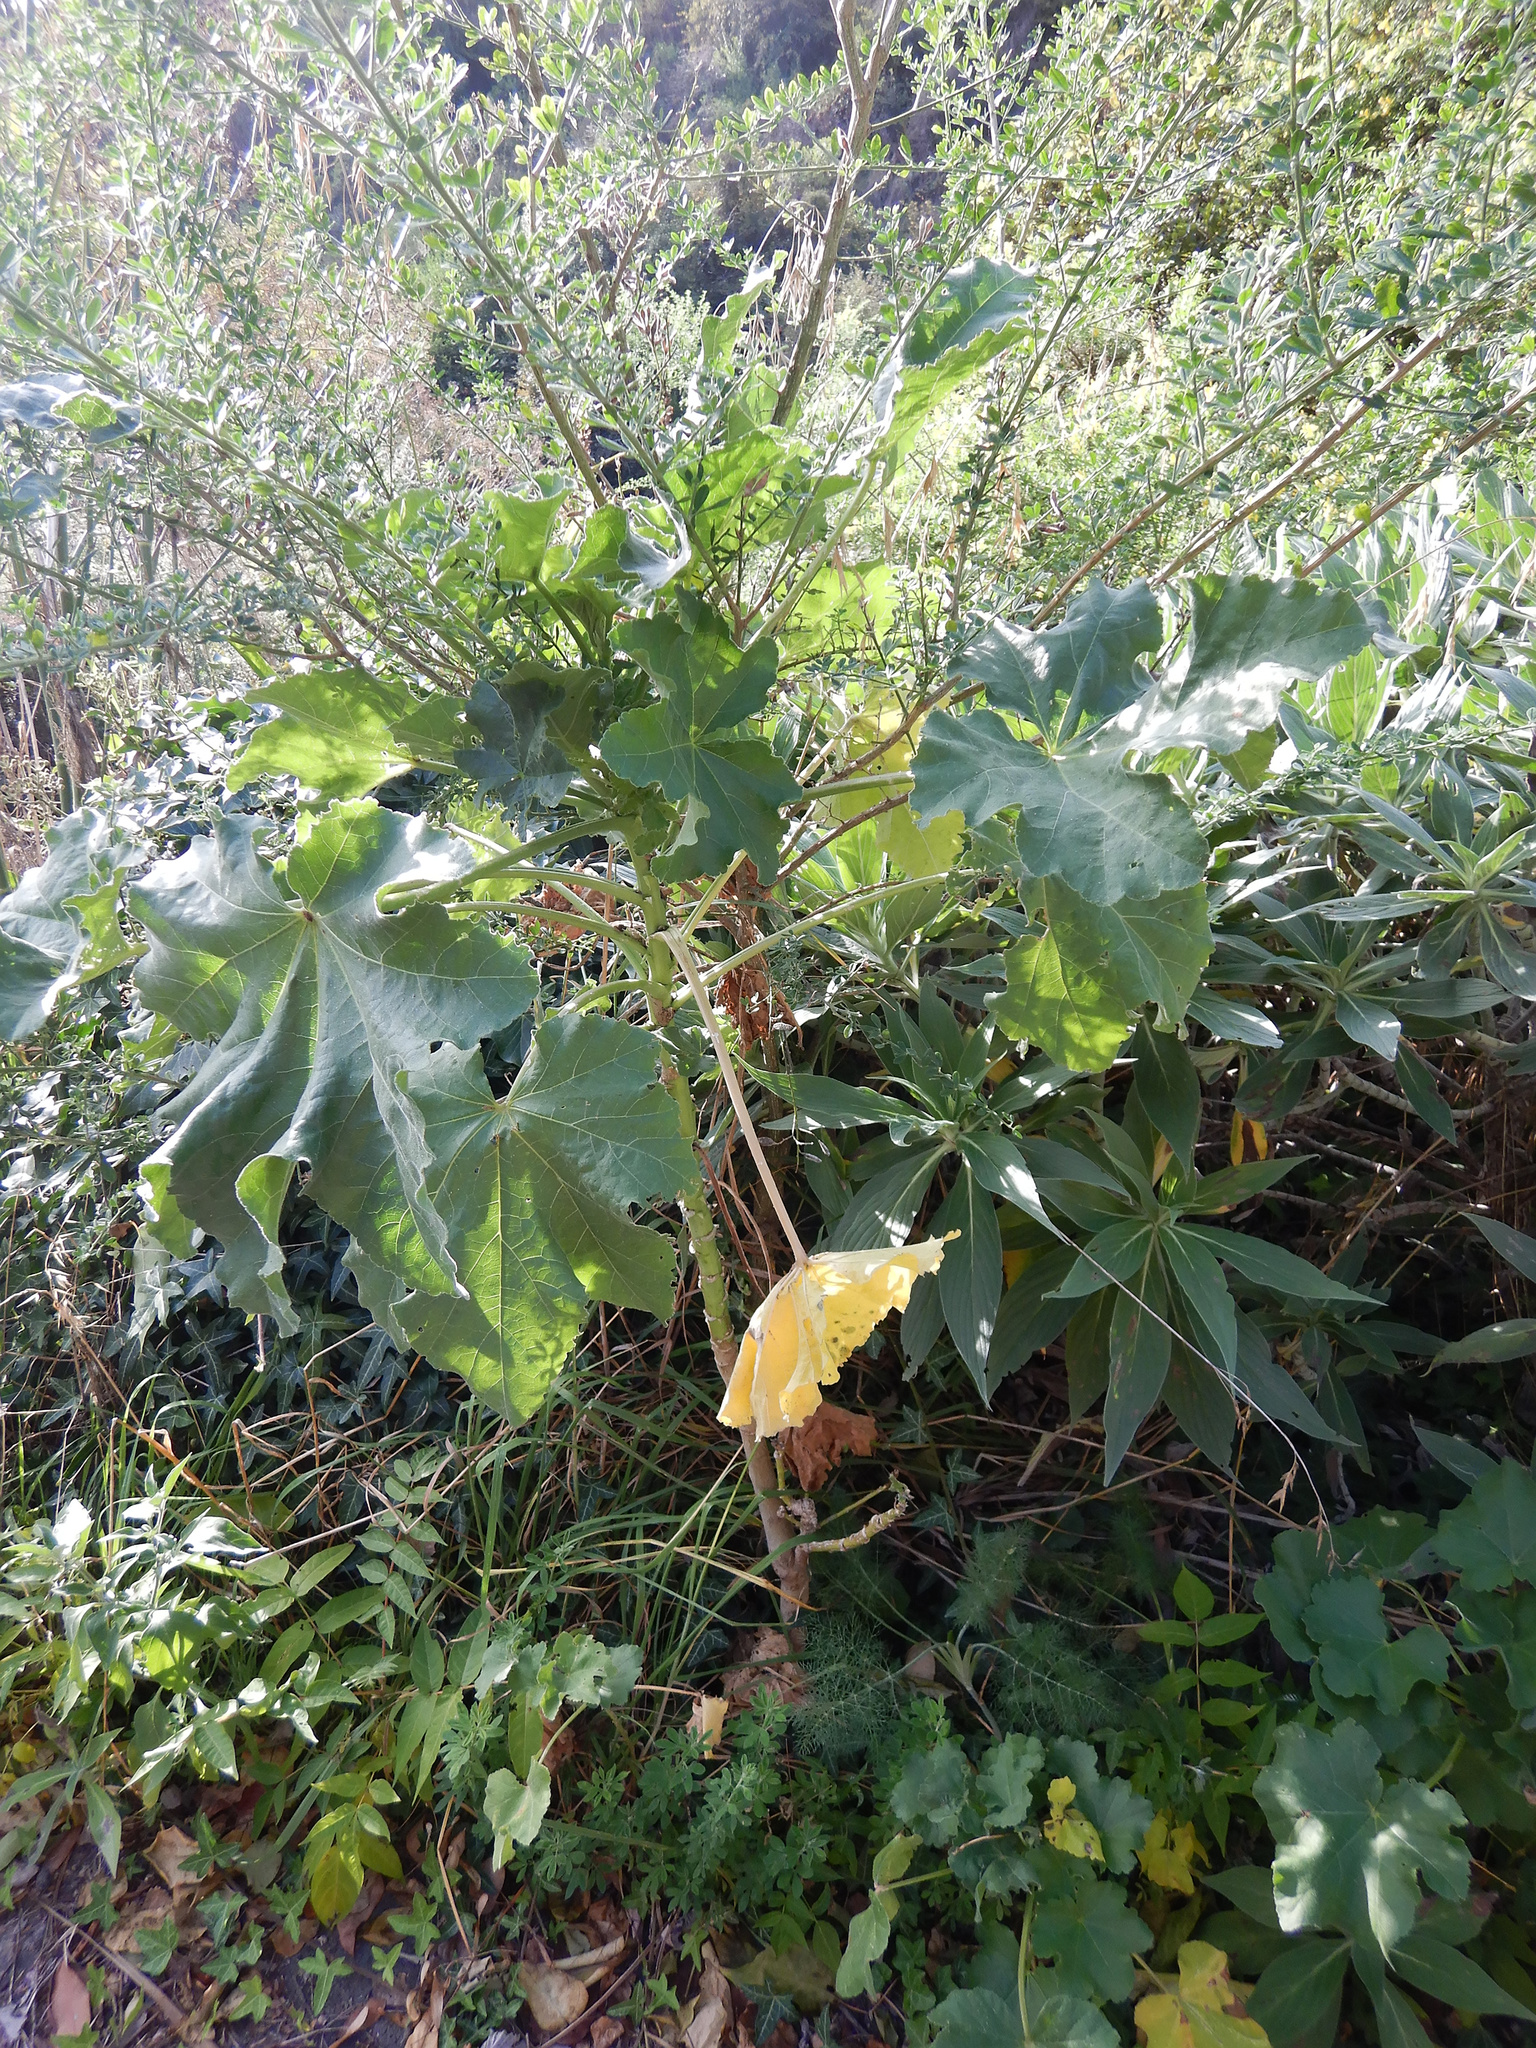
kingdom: Plantae
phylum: Tracheophyta
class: Magnoliopsida
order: Malvales
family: Malvaceae
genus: Malva
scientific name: Malva arborea
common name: Tree mallow
